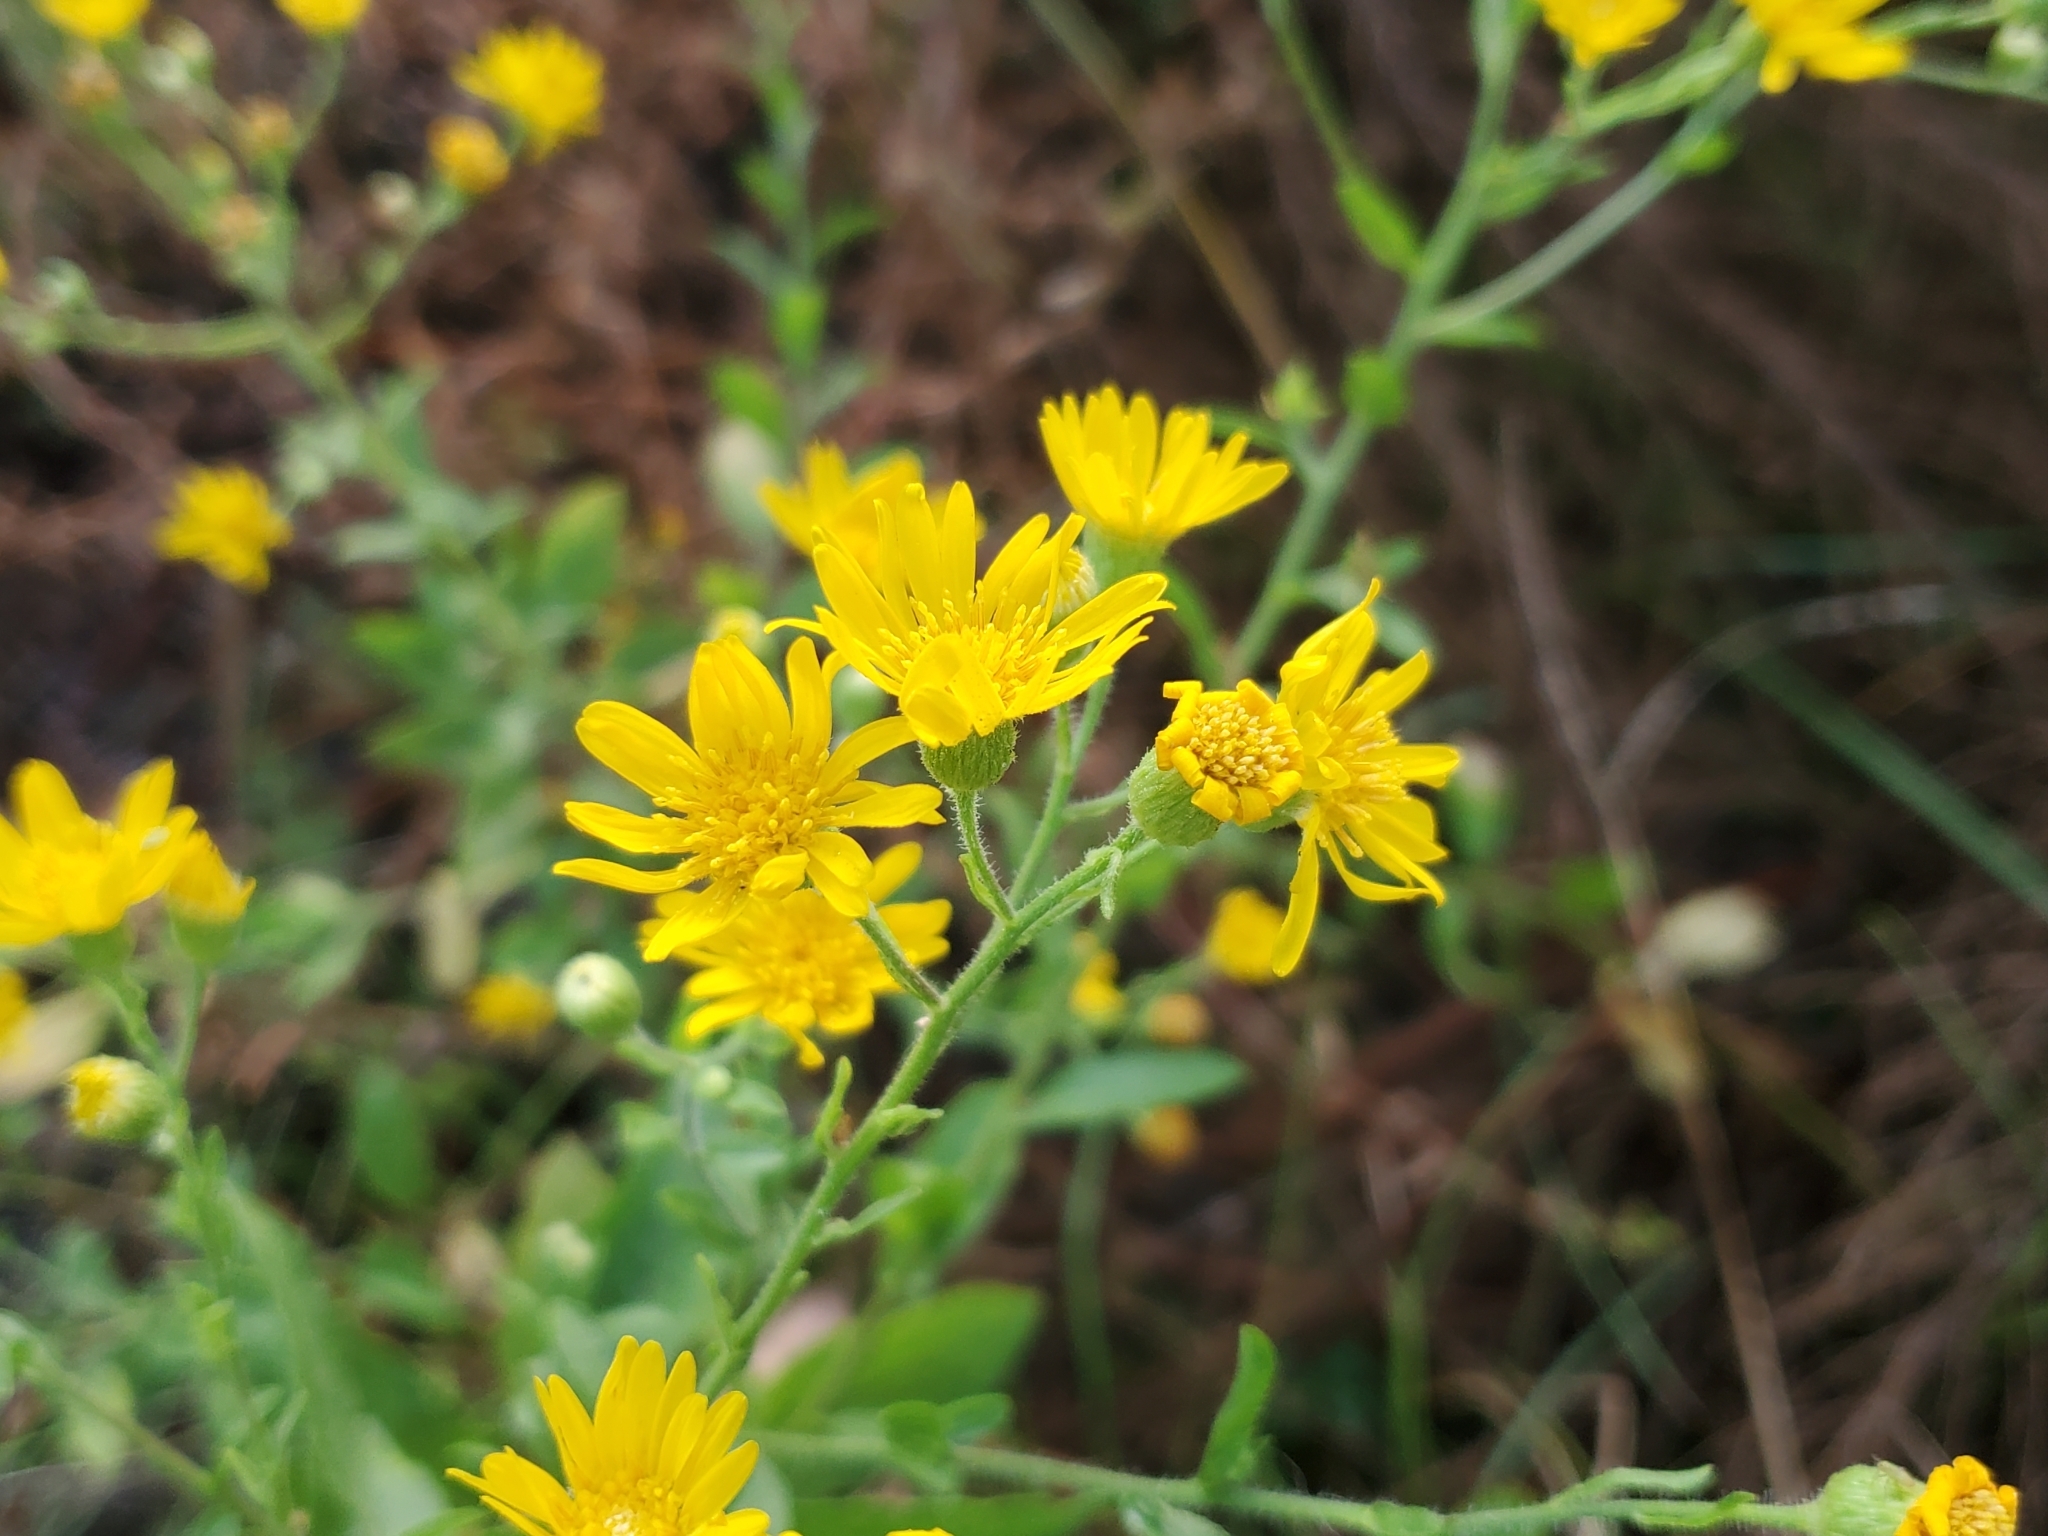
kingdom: Plantae
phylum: Tracheophyta
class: Magnoliopsida
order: Asterales
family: Asteraceae
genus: Heterotheca
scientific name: Heterotheca subaxillaris
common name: Camphorweed
